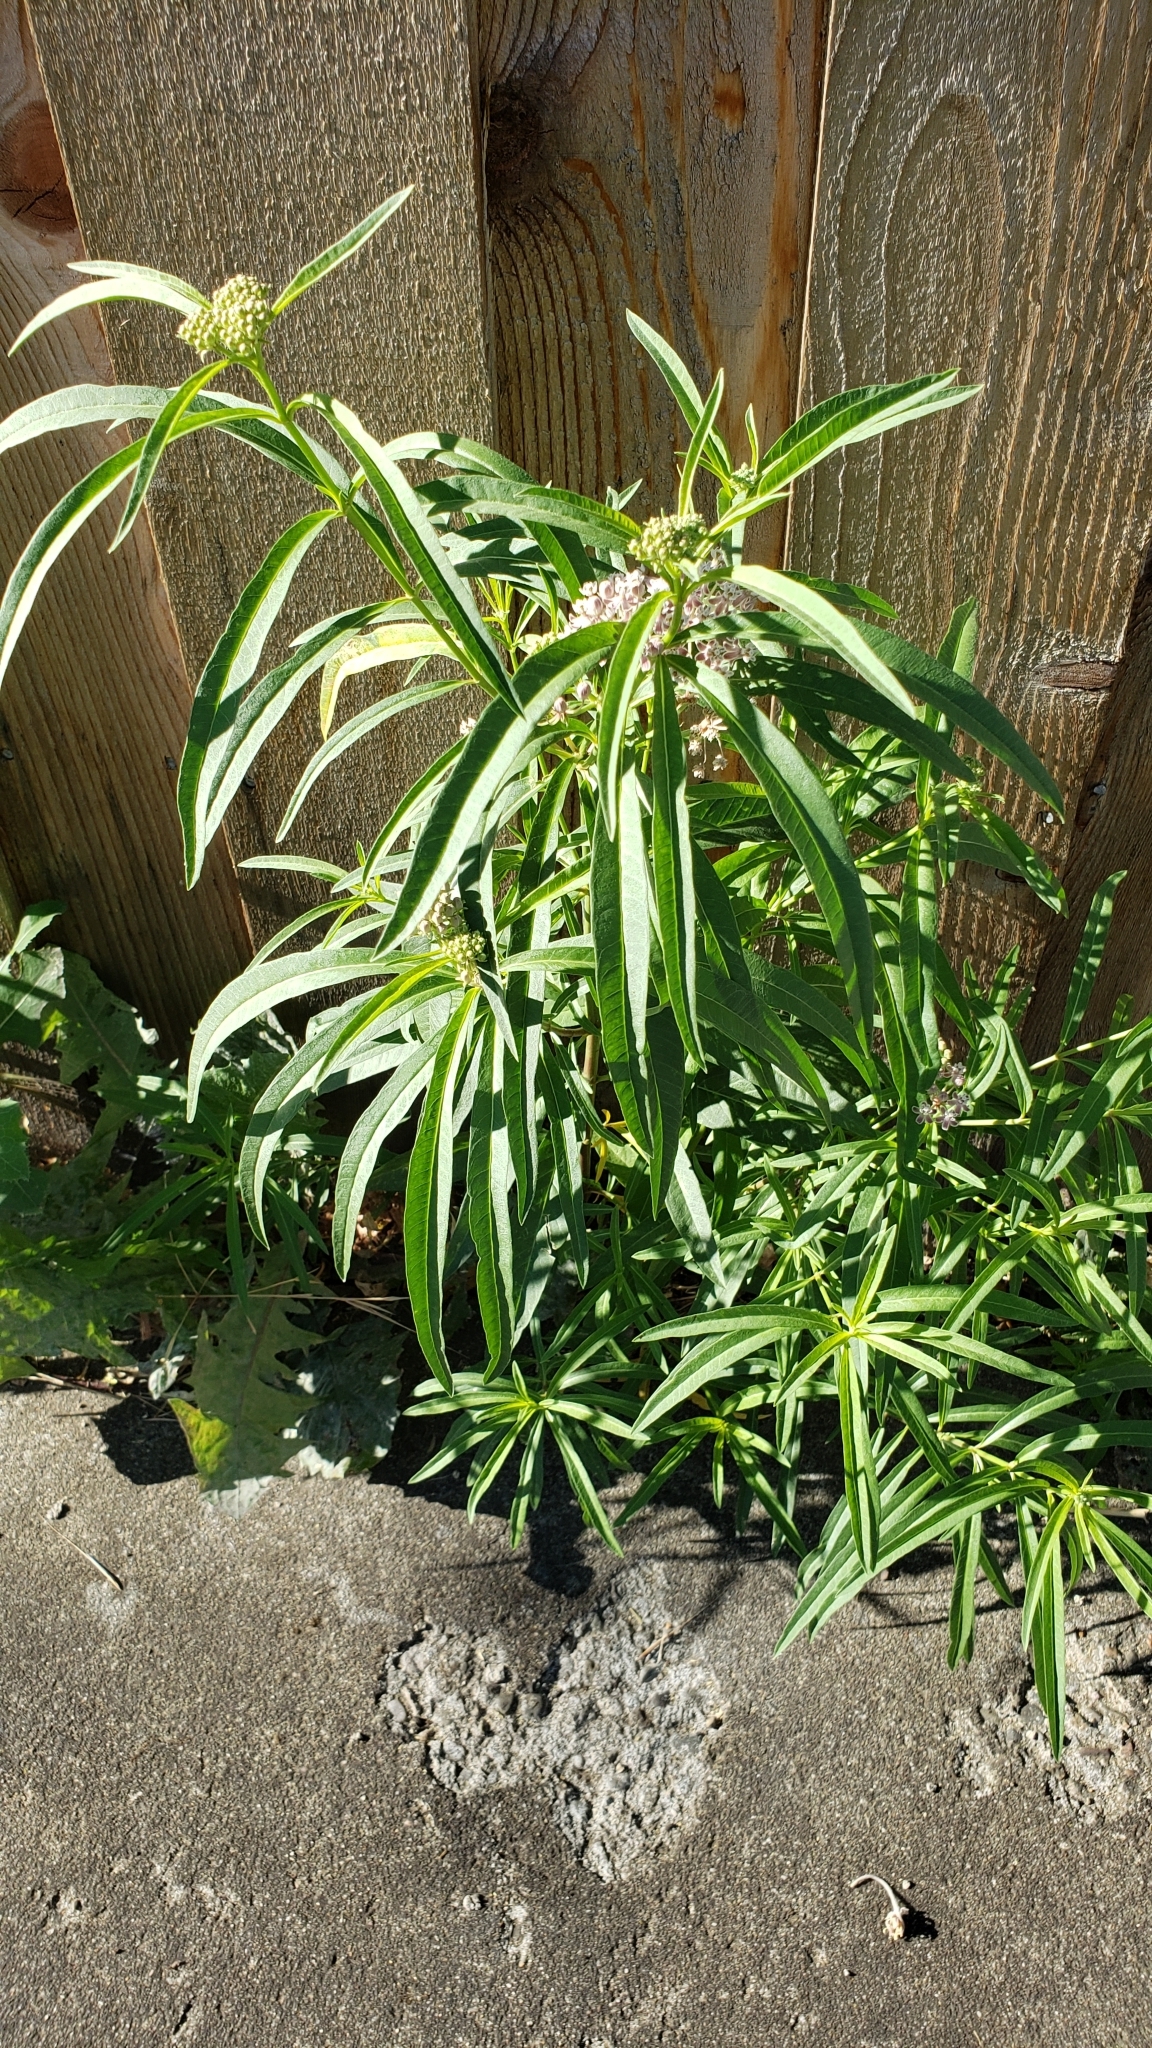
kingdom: Plantae
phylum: Tracheophyta
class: Magnoliopsida
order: Gentianales
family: Apocynaceae
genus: Asclepias
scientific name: Asclepias fascicularis
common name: Mexican milkweed
